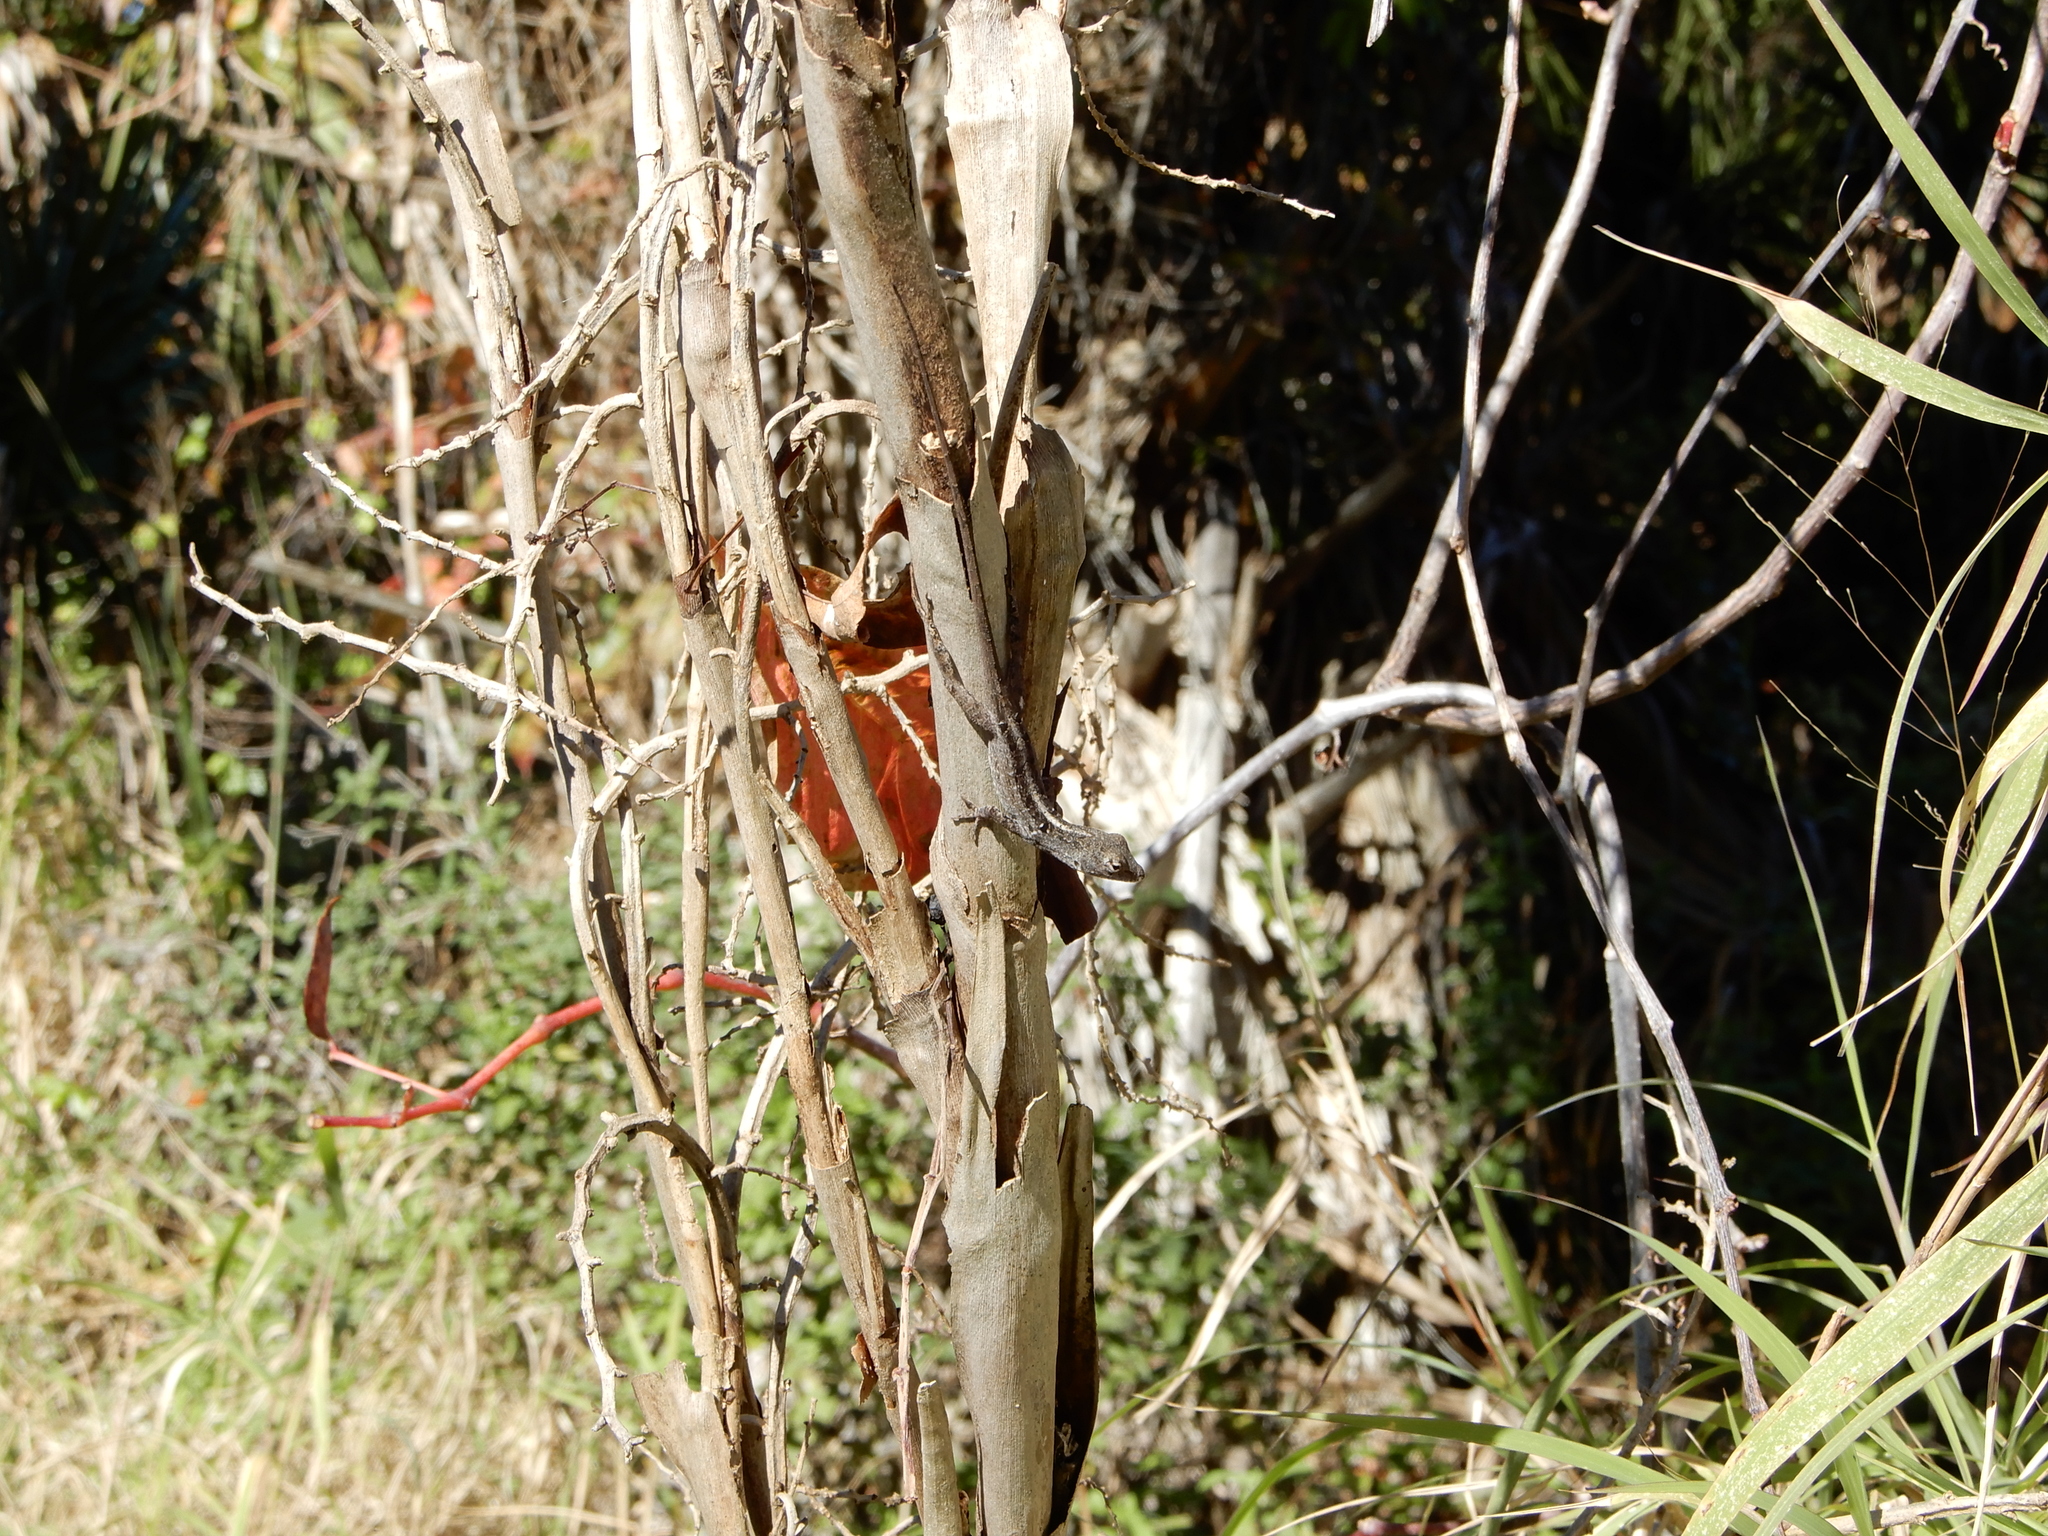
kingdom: Animalia
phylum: Chordata
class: Squamata
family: Dactyloidae
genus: Anolis
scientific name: Anolis sagrei
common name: Brown anole
